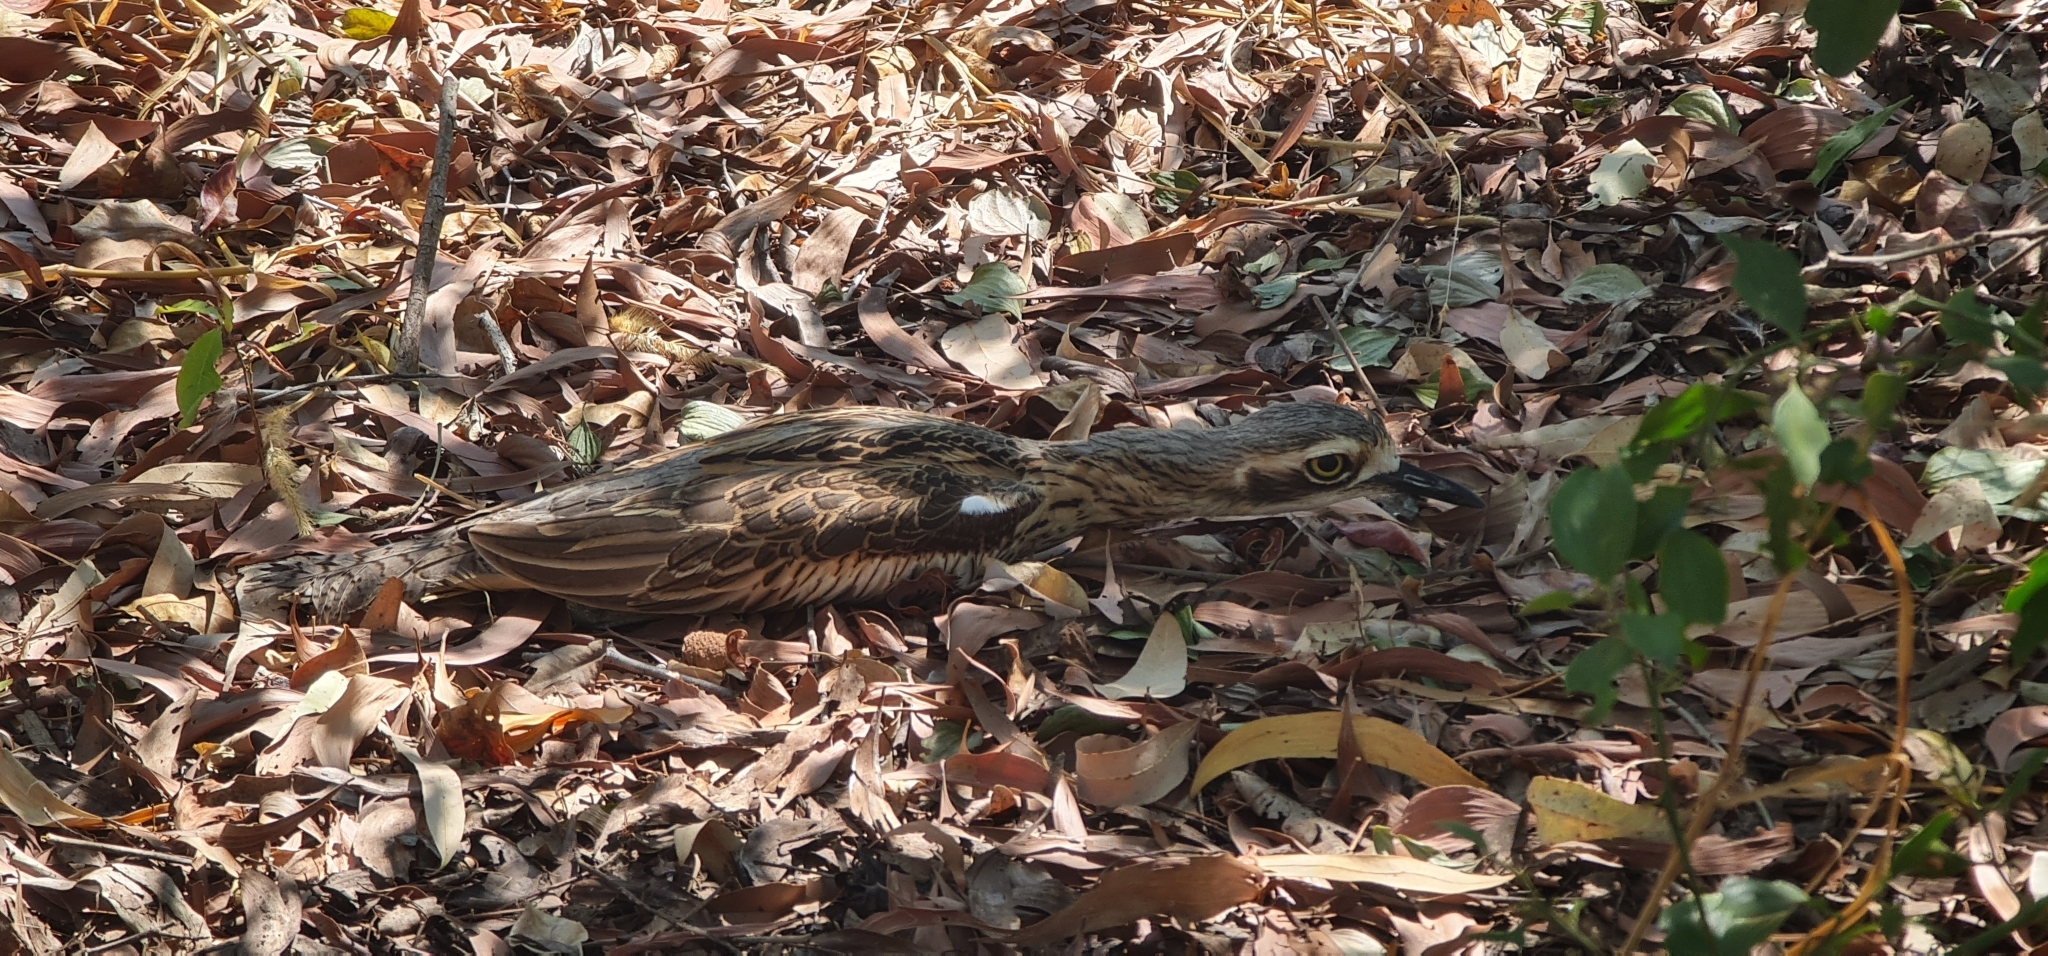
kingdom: Animalia
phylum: Chordata
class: Aves
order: Charadriiformes
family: Burhinidae
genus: Burhinus
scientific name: Burhinus grallarius
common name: Bush stone-curlew
